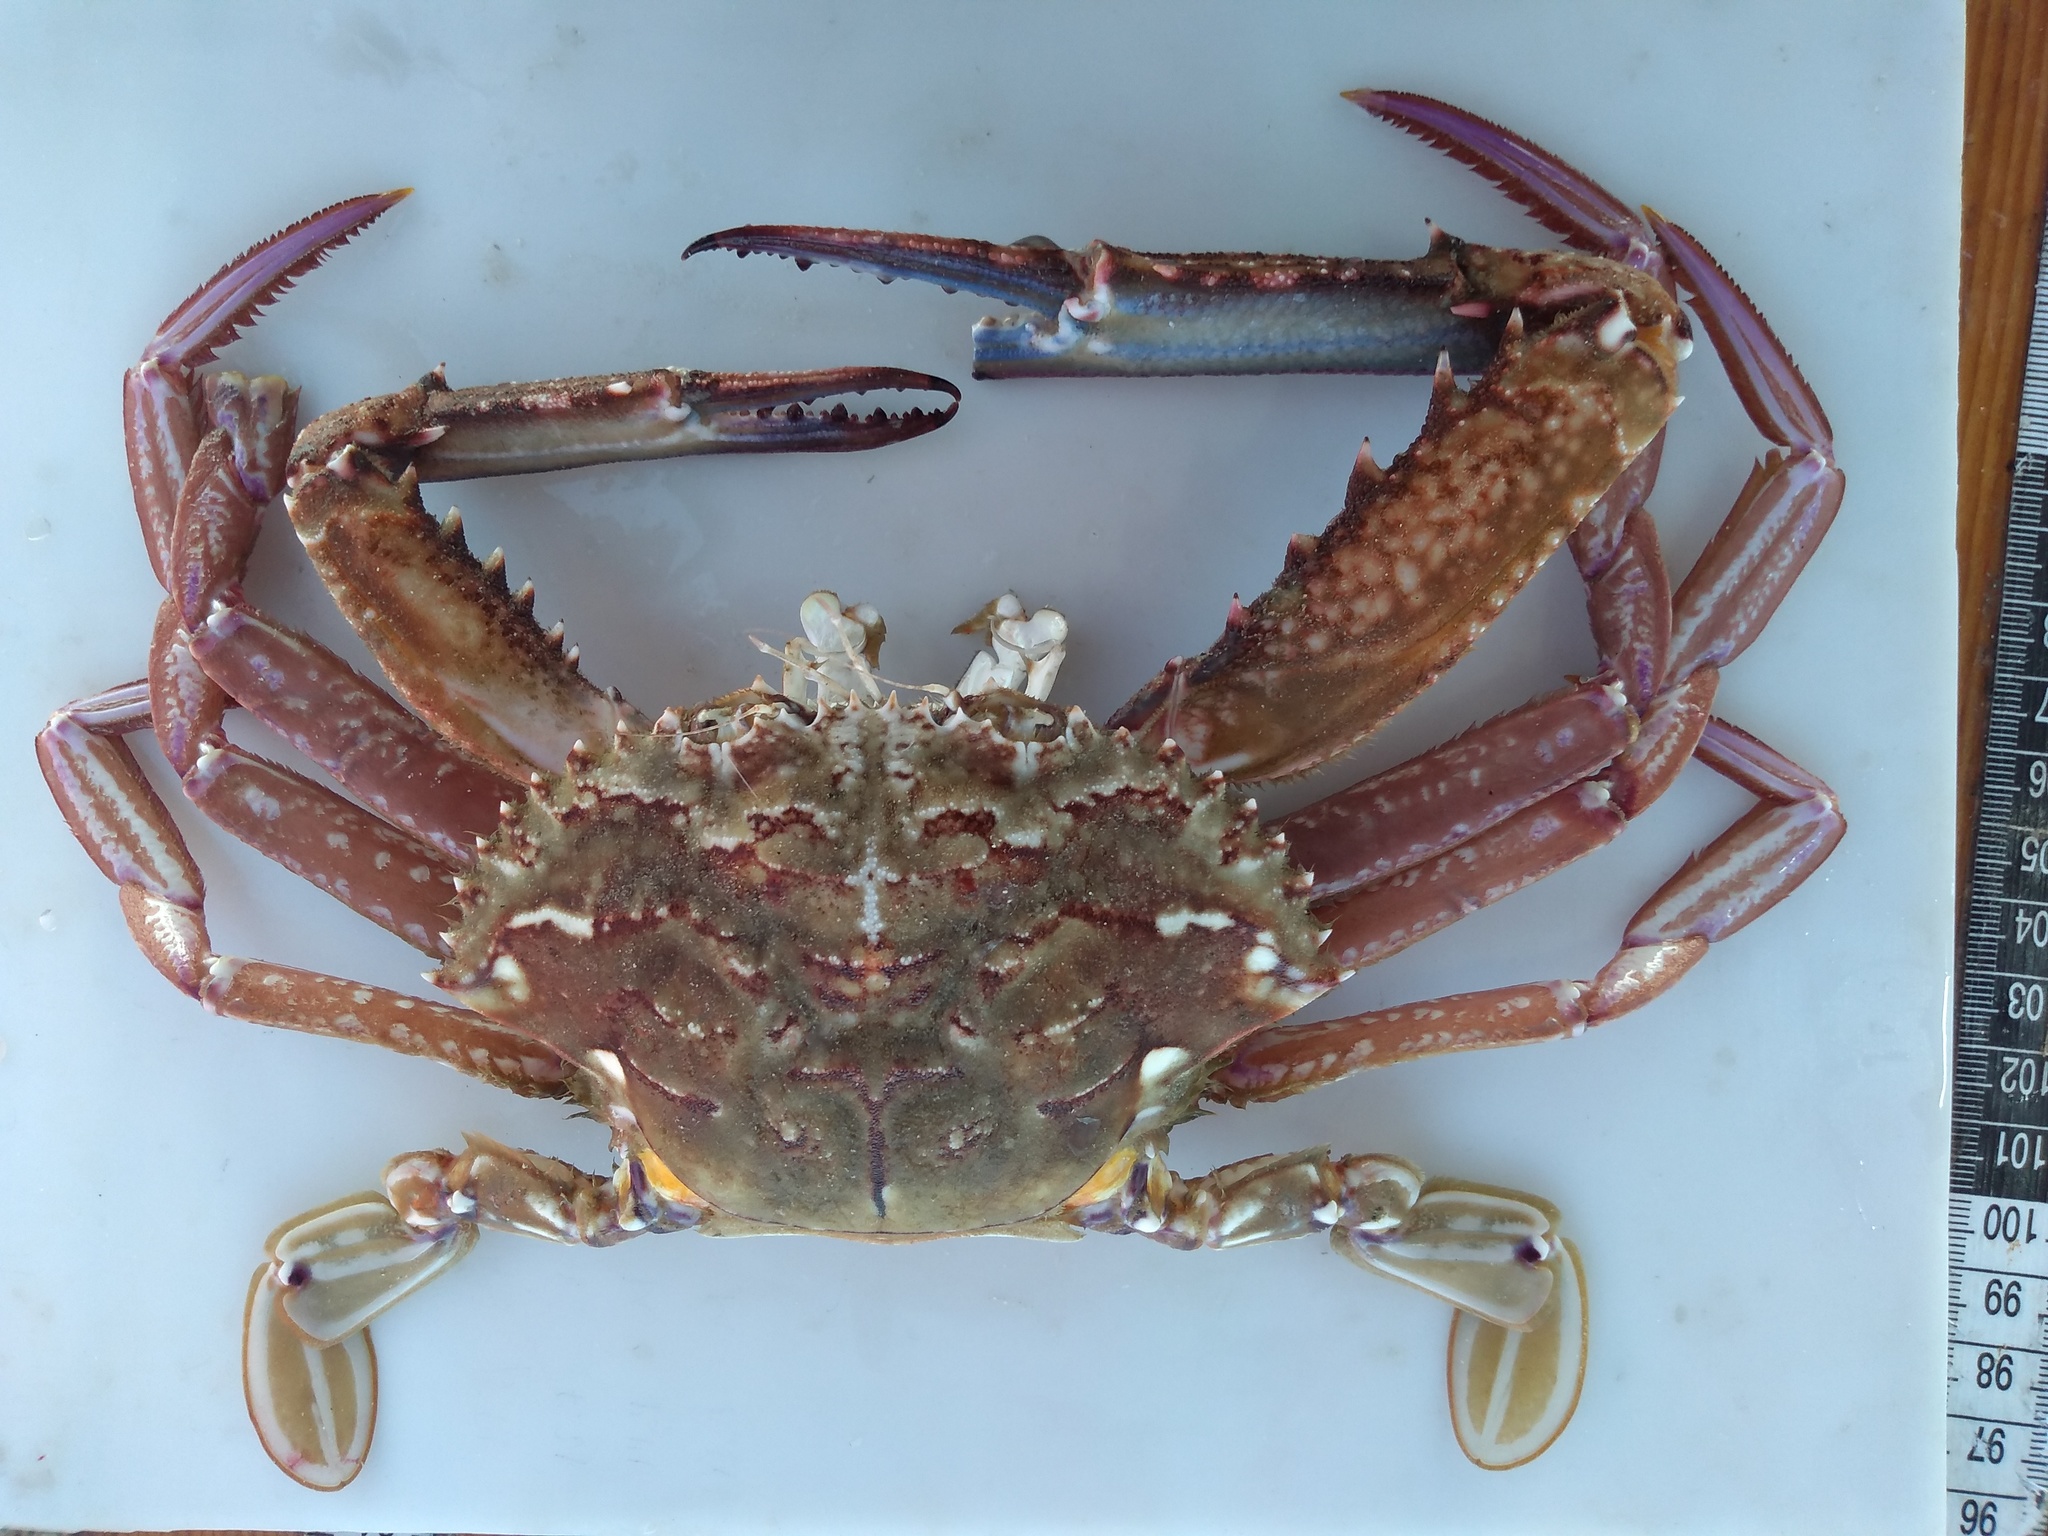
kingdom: Animalia
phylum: Arthropoda
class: Malacostraca
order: Decapoda
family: Portunidae
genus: Achelous
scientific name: Achelous spinimanus
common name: Spiny-handed portunus
